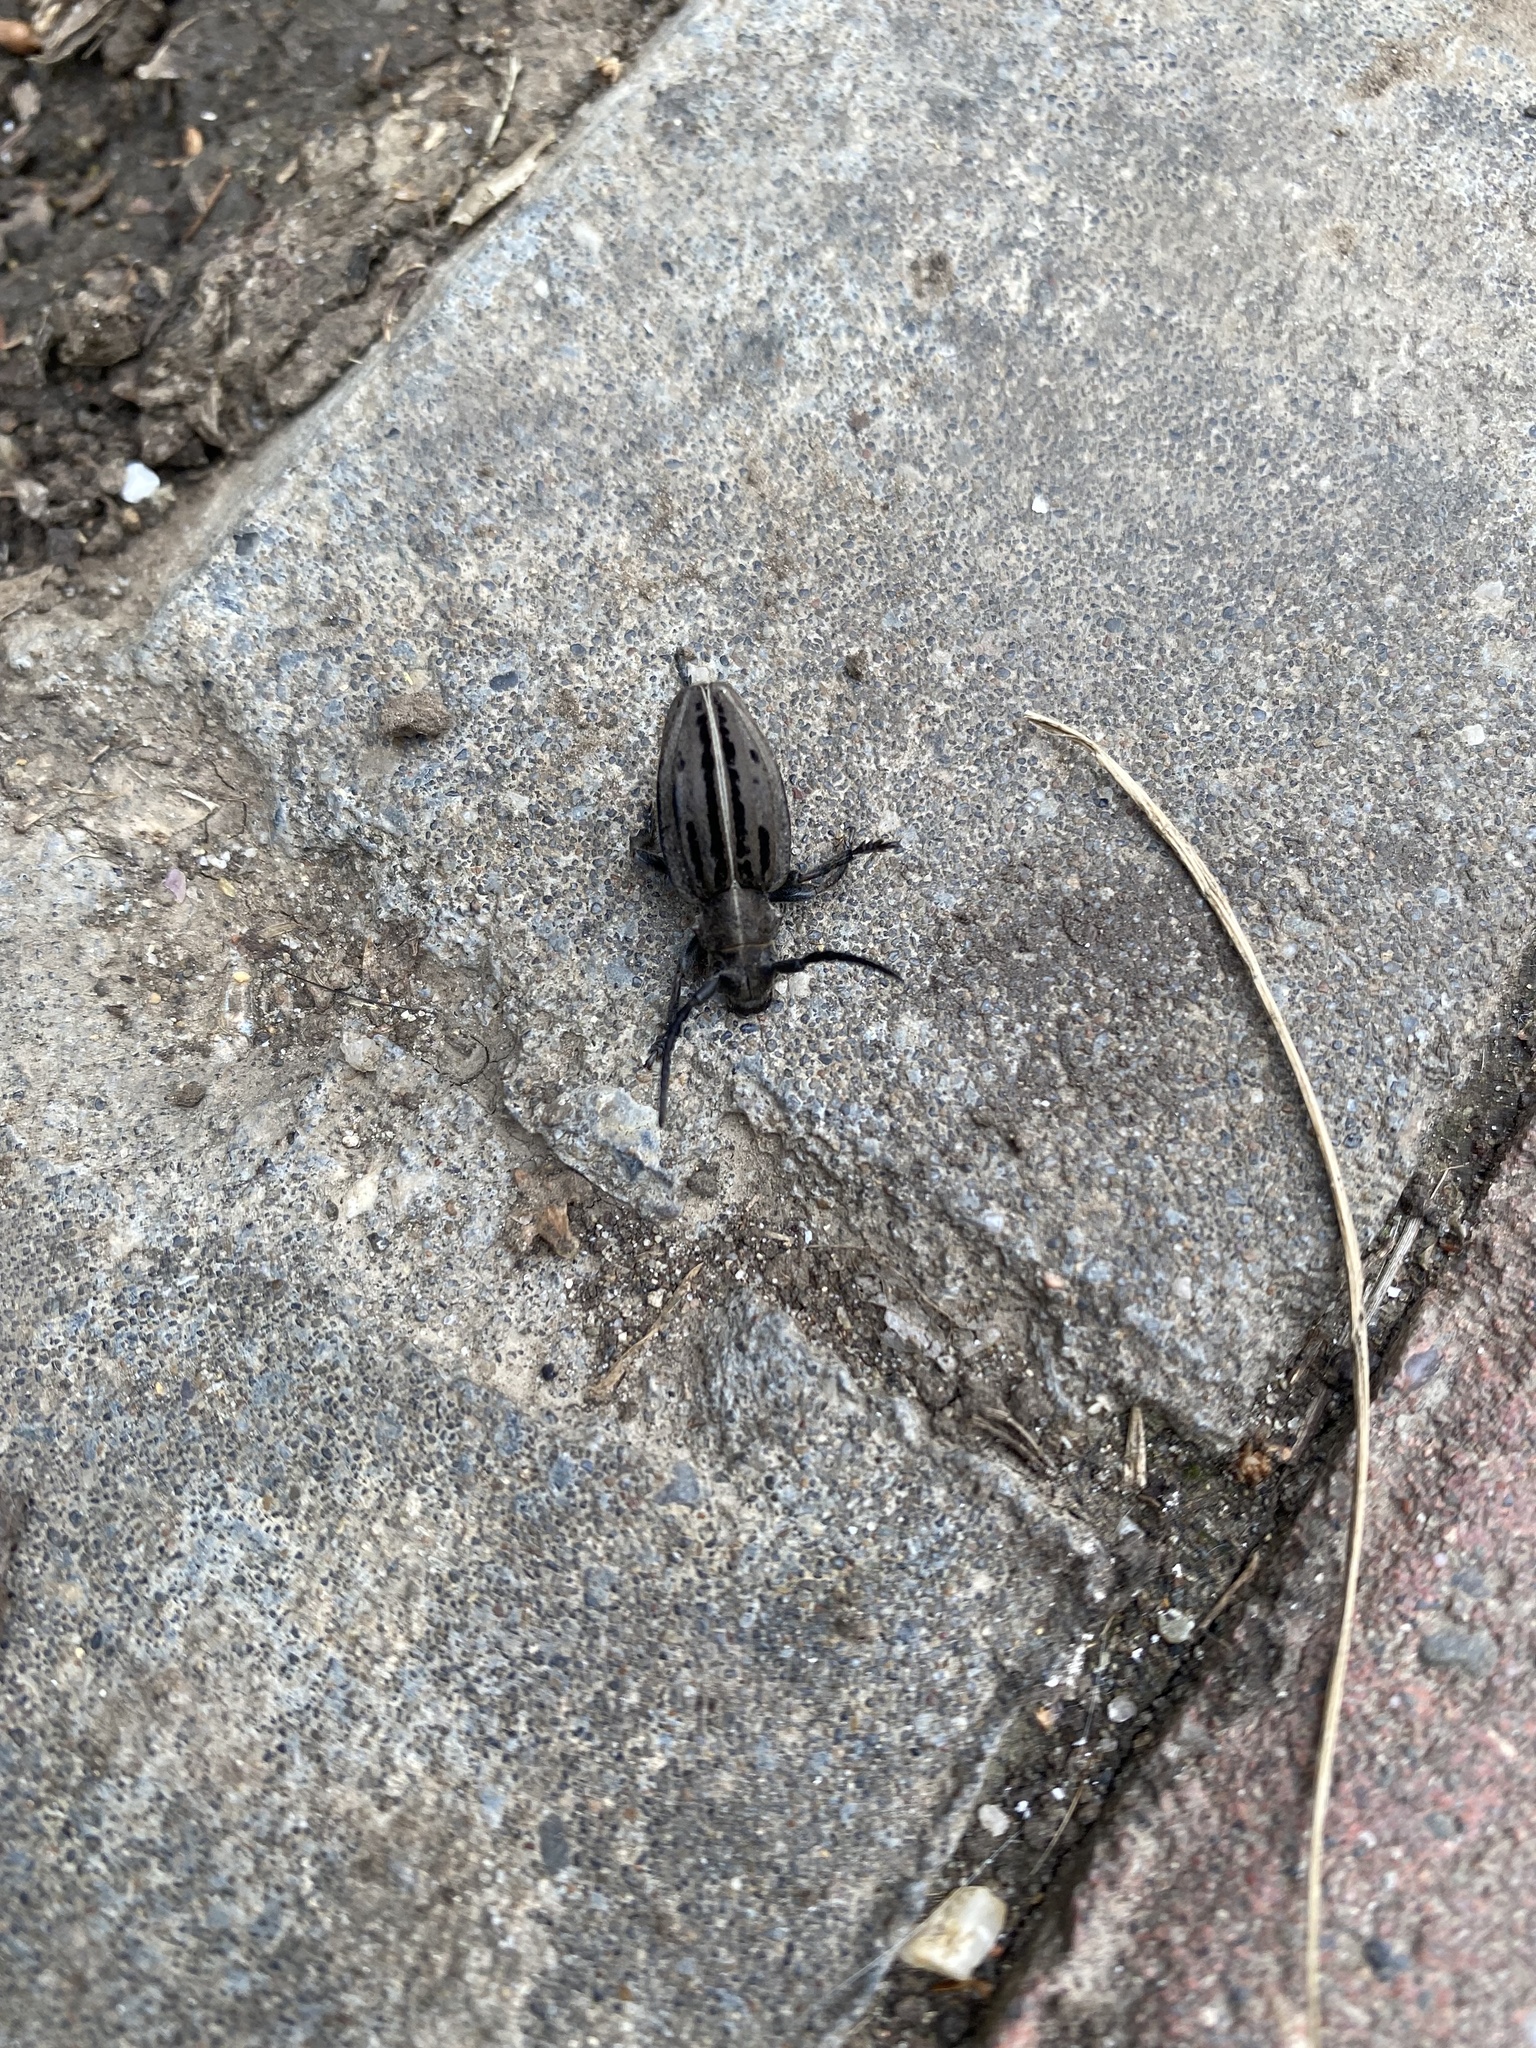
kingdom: Animalia
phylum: Arthropoda
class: Insecta
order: Coleoptera
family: Cerambycidae
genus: Dorcadion
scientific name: Dorcadion holosericeum
